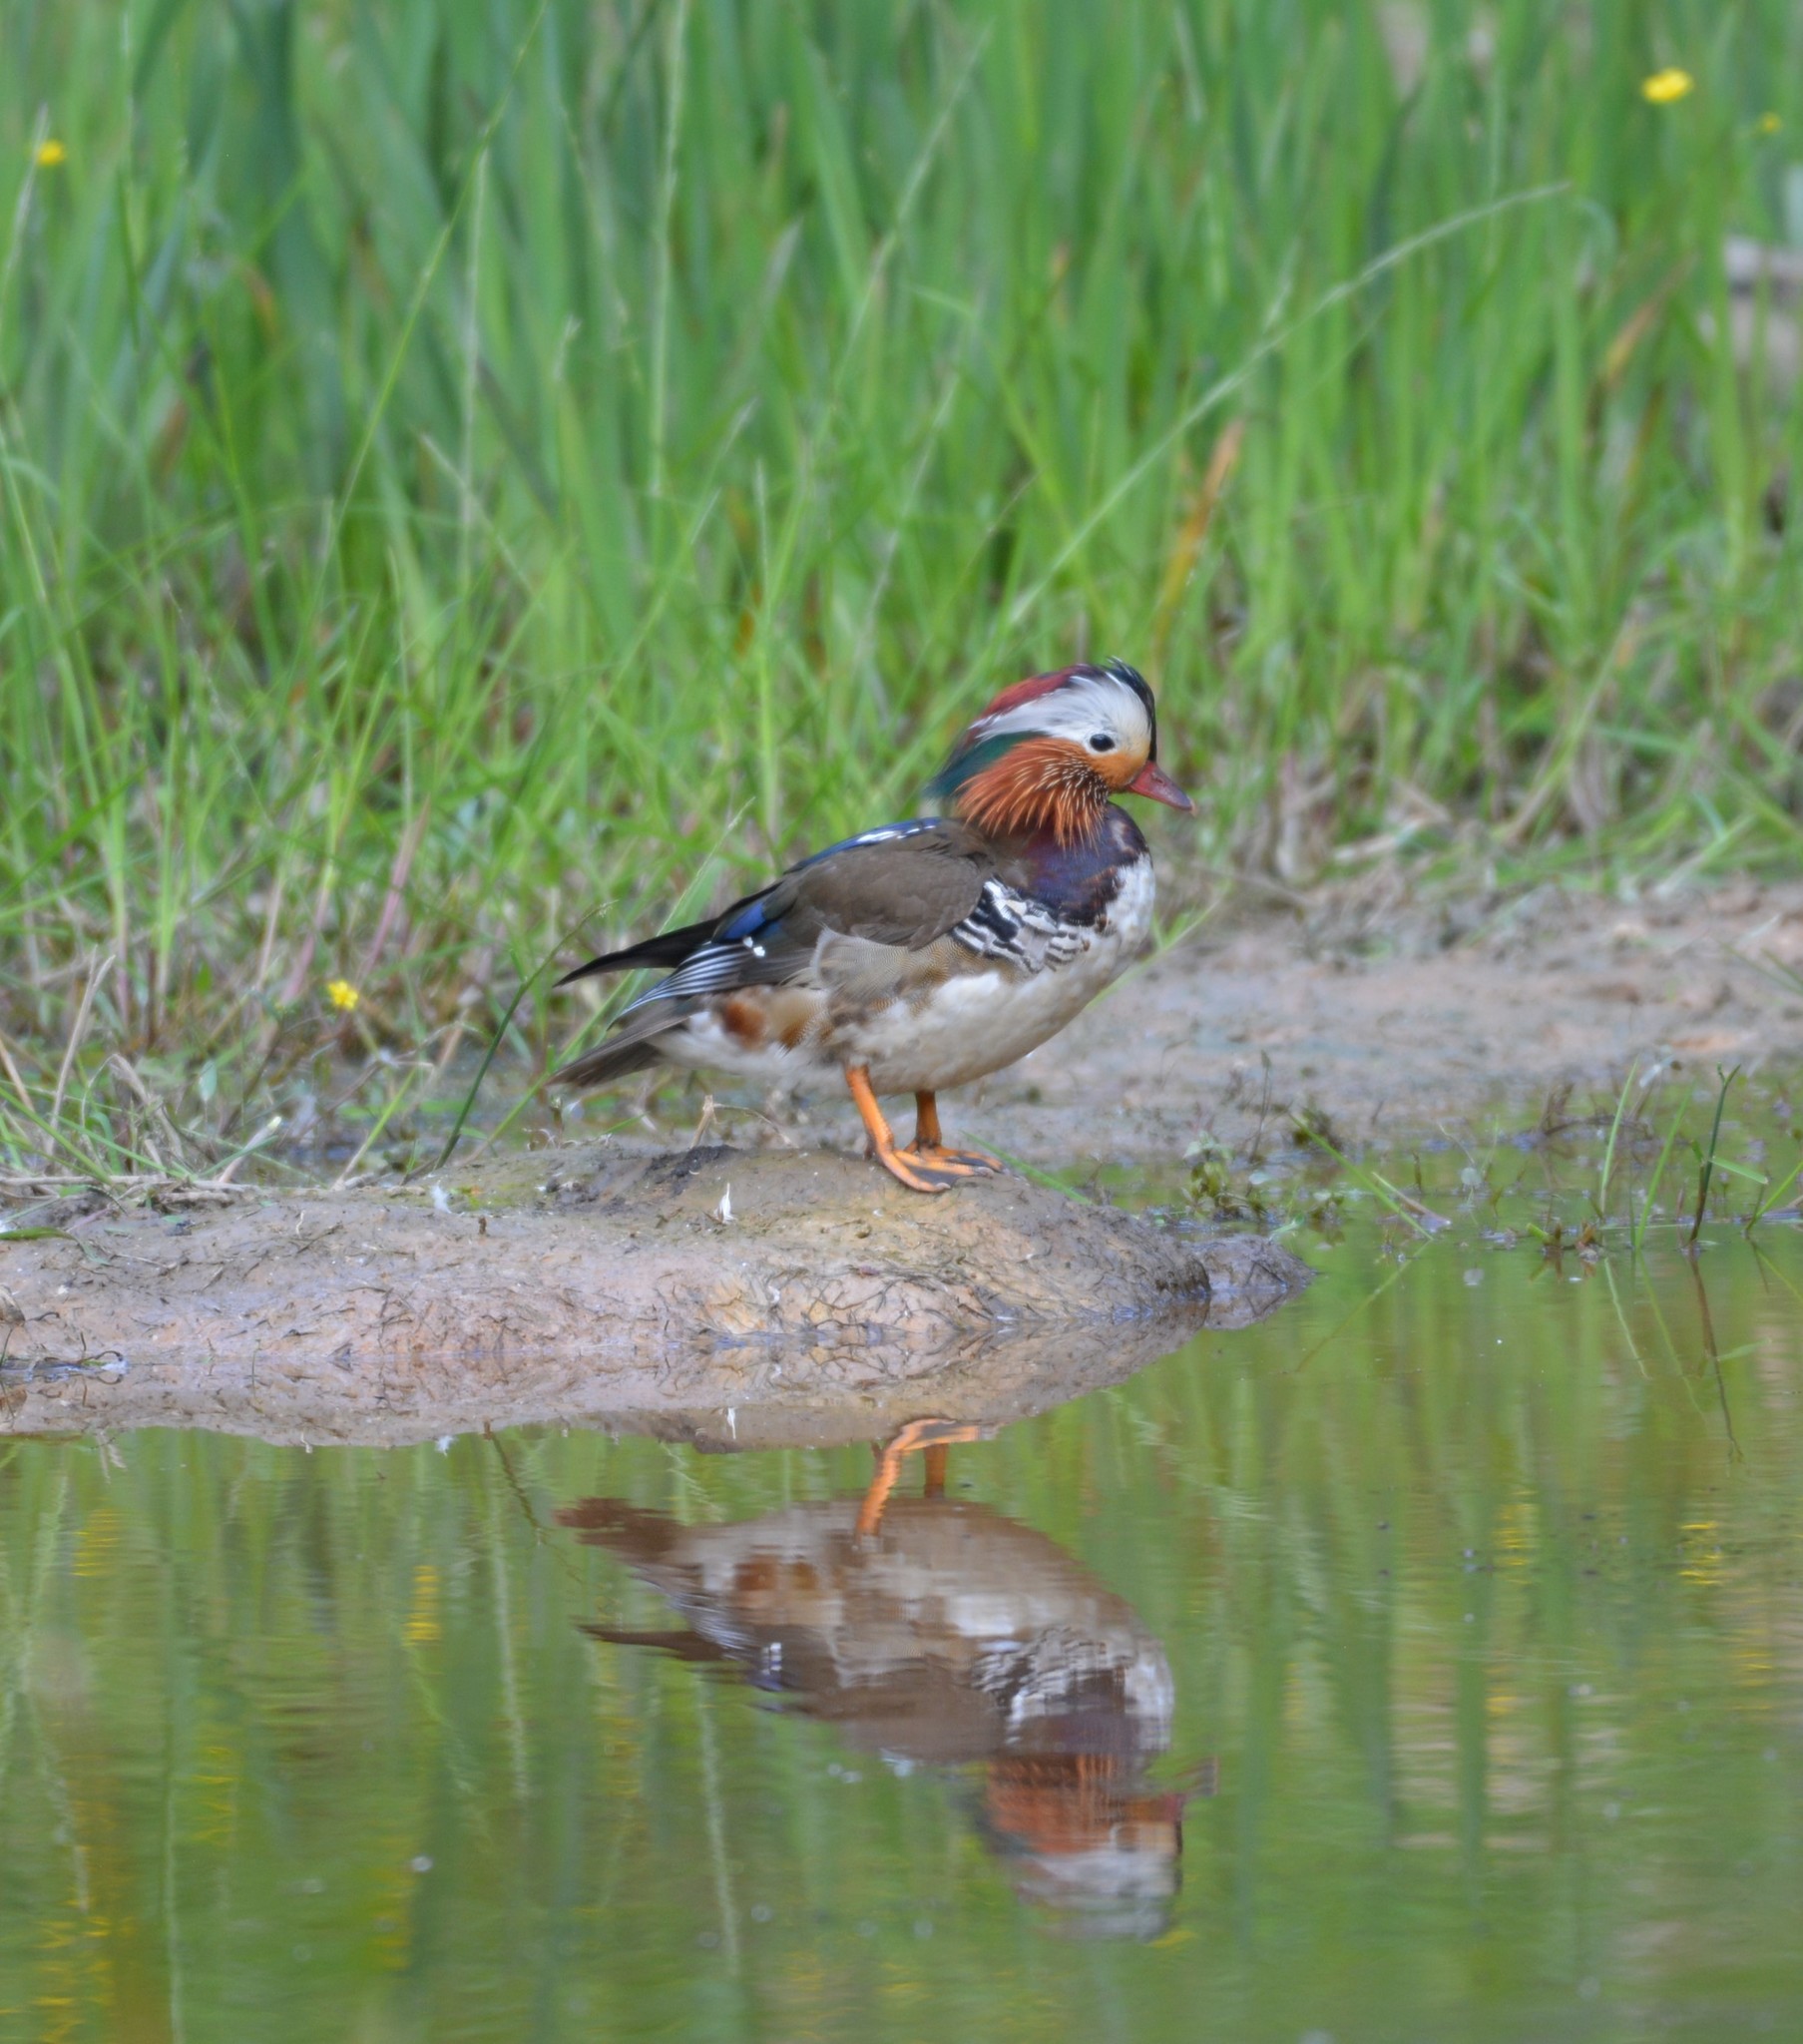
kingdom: Animalia
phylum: Chordata
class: Aves
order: Anseriformes
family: Anatidae
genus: Aix
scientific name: Aix galericulata
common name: Mandarin duck
